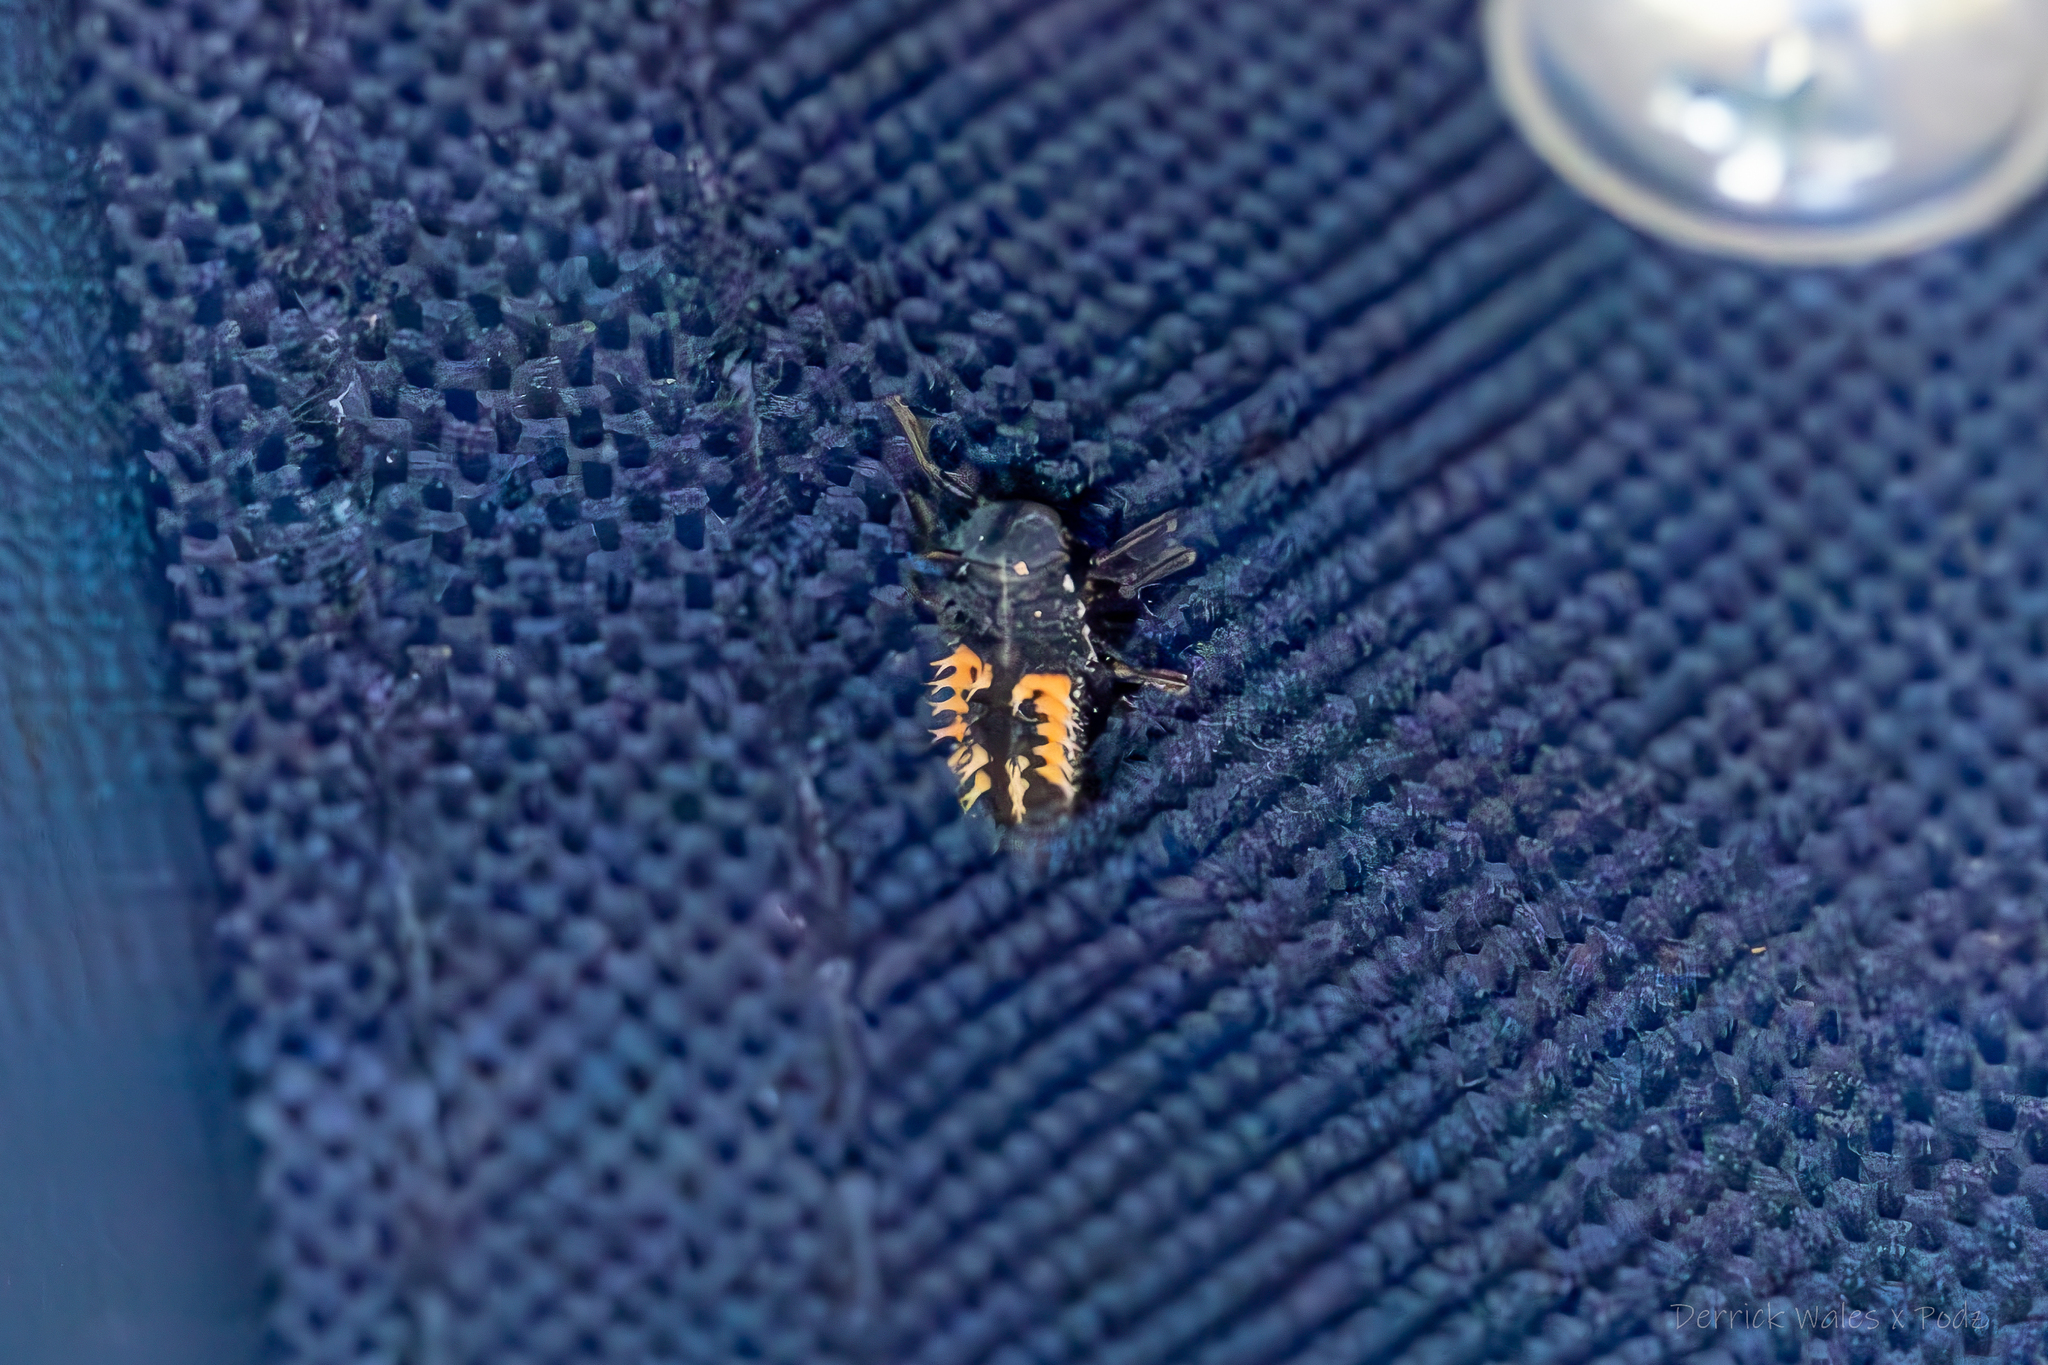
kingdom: Animalia
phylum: Arthropoda
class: Insecta
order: Coleoptera
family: Coccinellidae
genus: Harmonia
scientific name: Harmonia axyridis
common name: Harlequin ladybird
